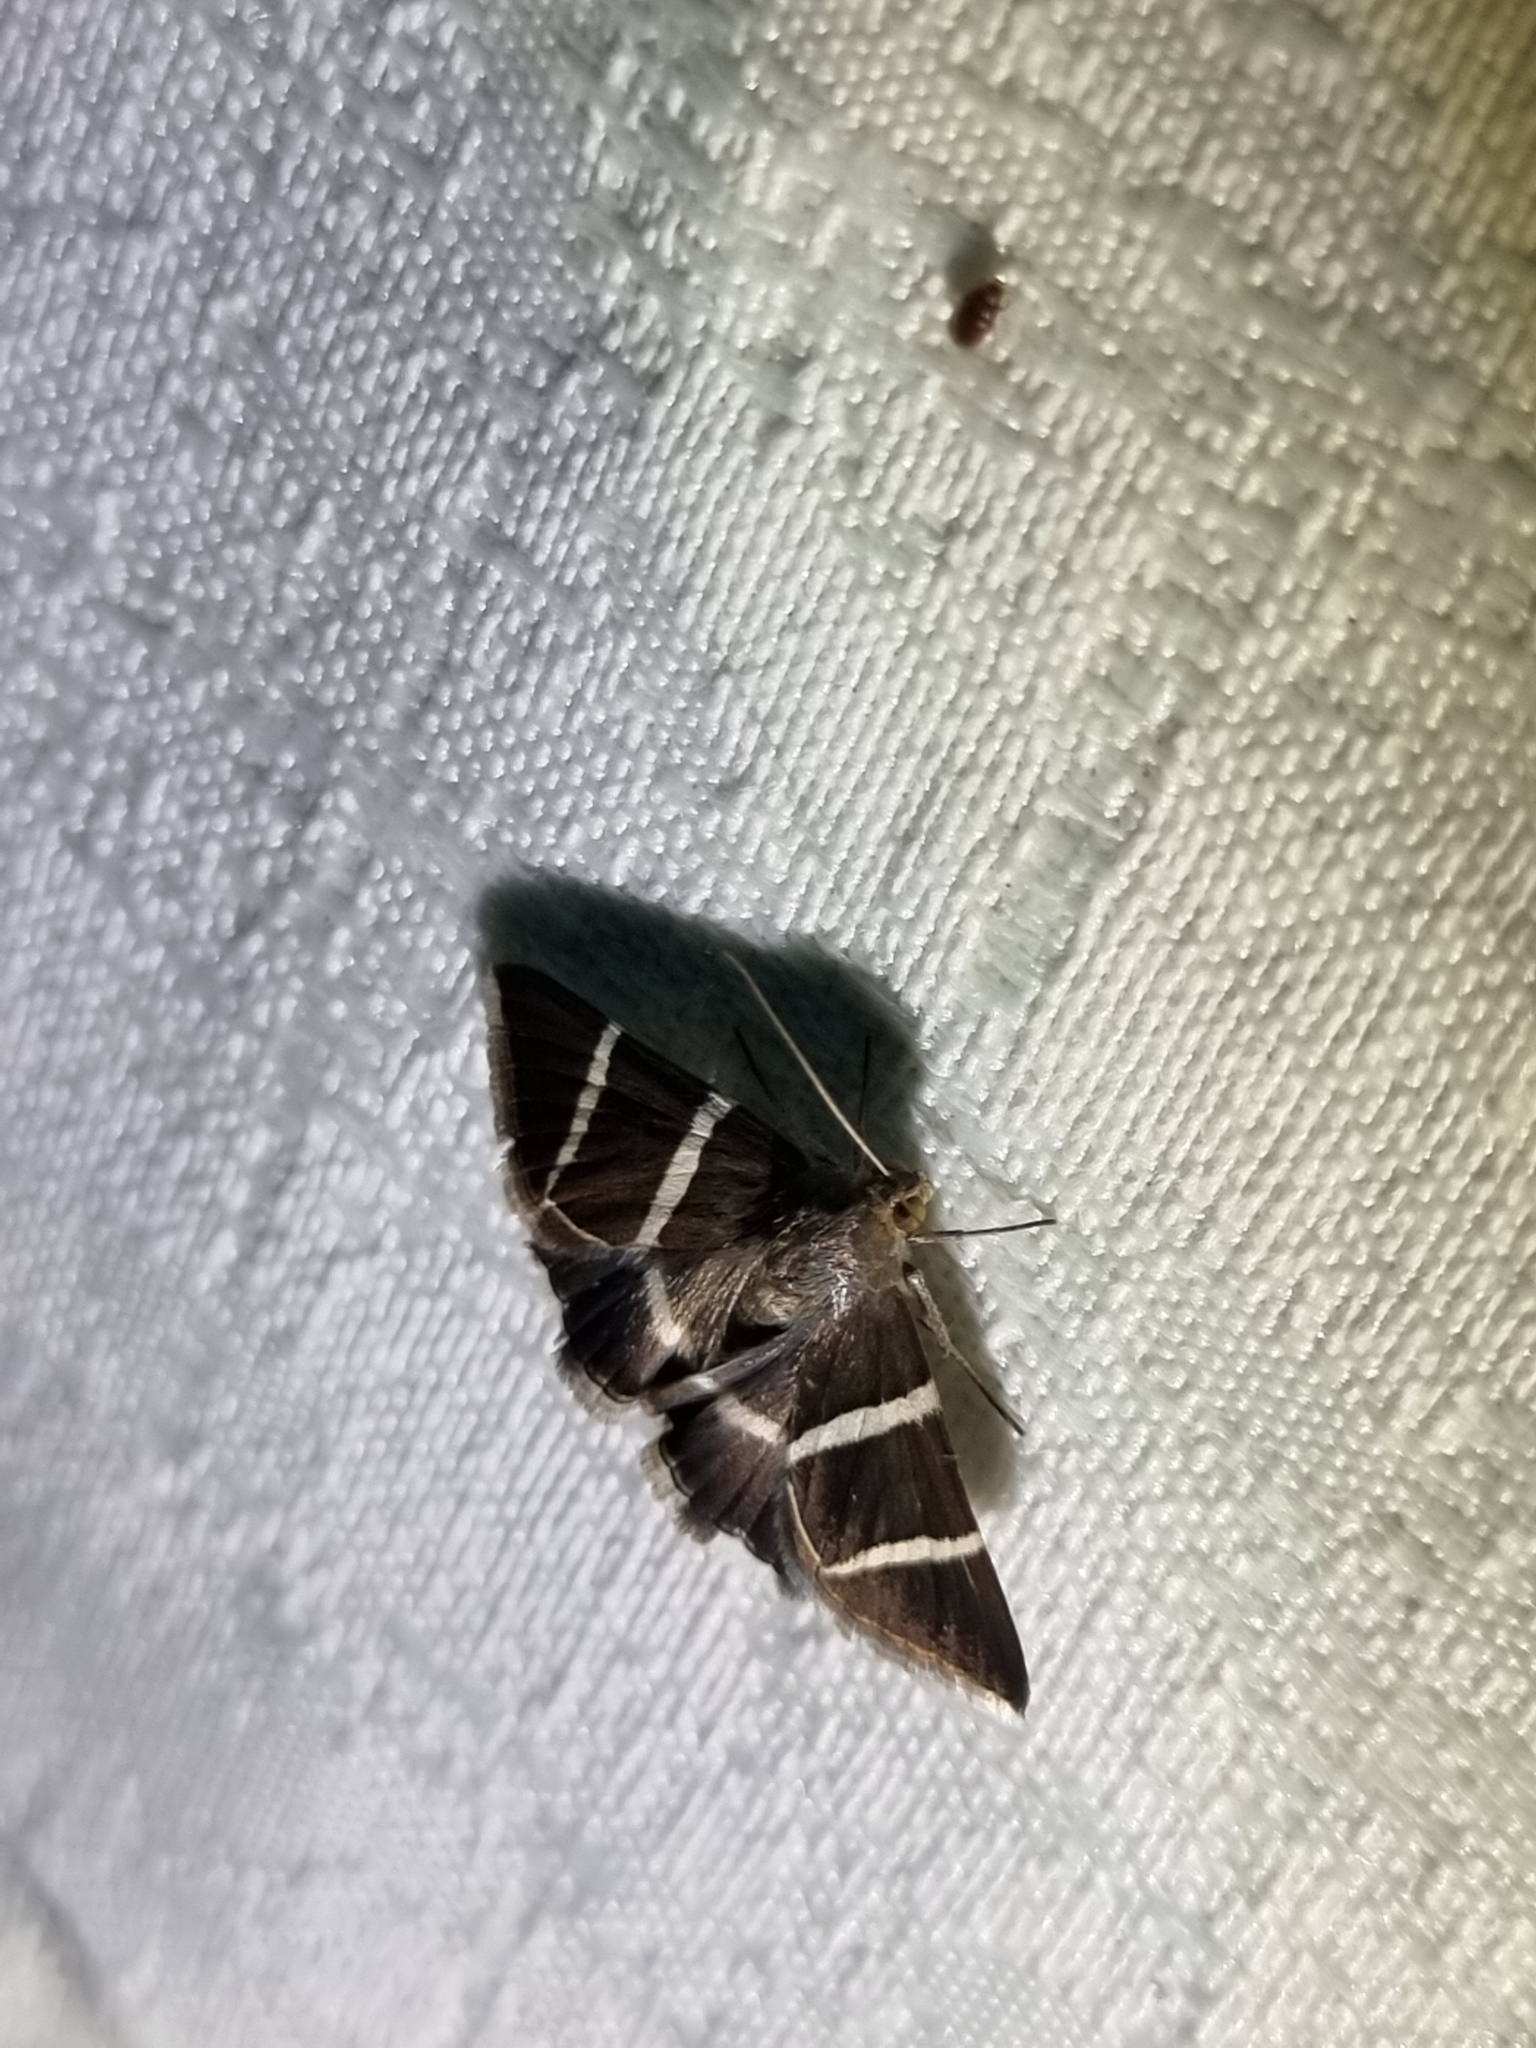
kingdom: Animalia
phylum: Arthropoda
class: Insecta
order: Lepidoptera
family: Erebidae
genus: Grammodes
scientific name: Grammodes justa
